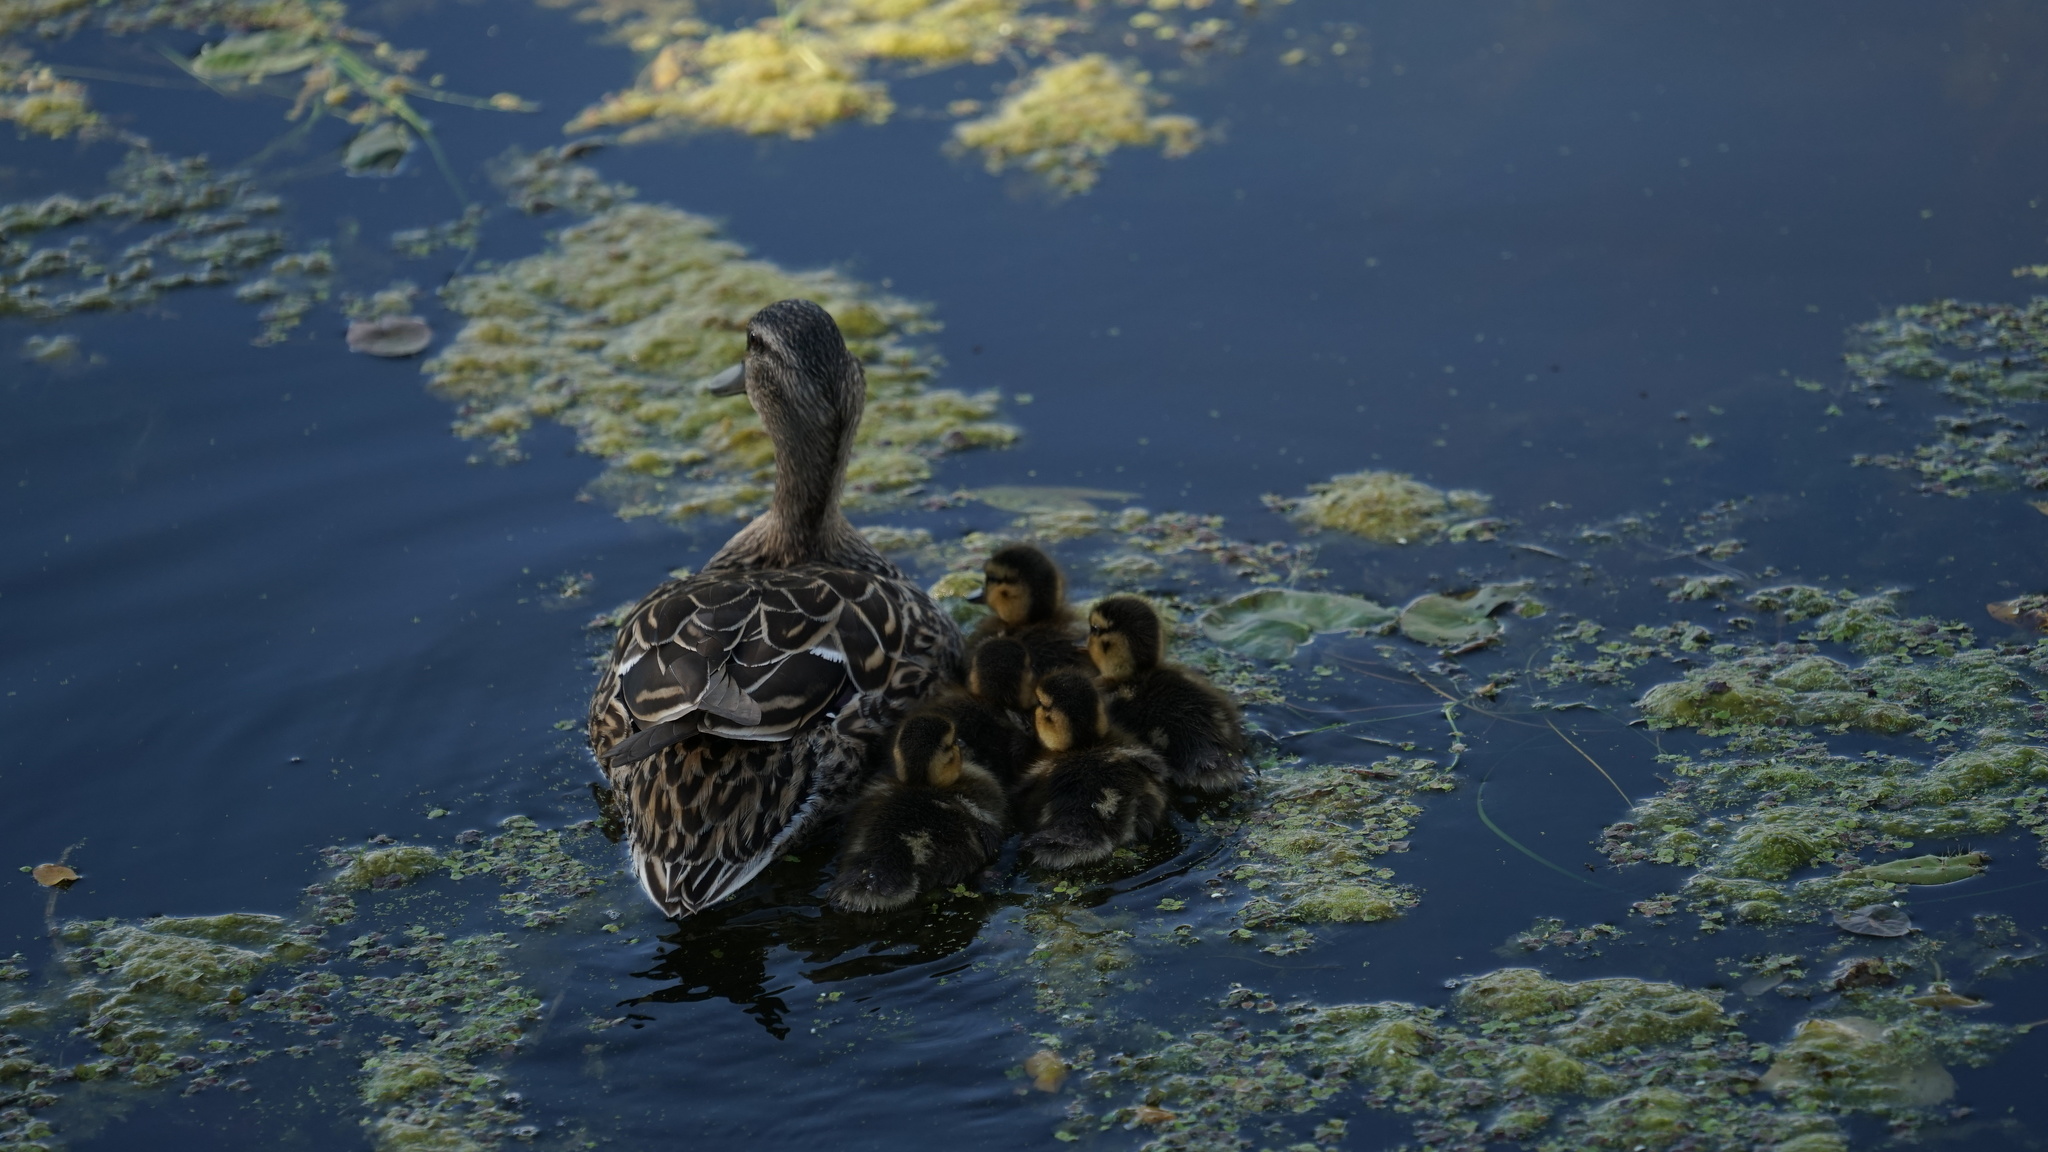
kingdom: Animalia
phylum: Chordata
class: Aves
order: Anseriformes
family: Anatidae
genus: Anas
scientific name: Anas platyrhynchos
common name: Mallard
